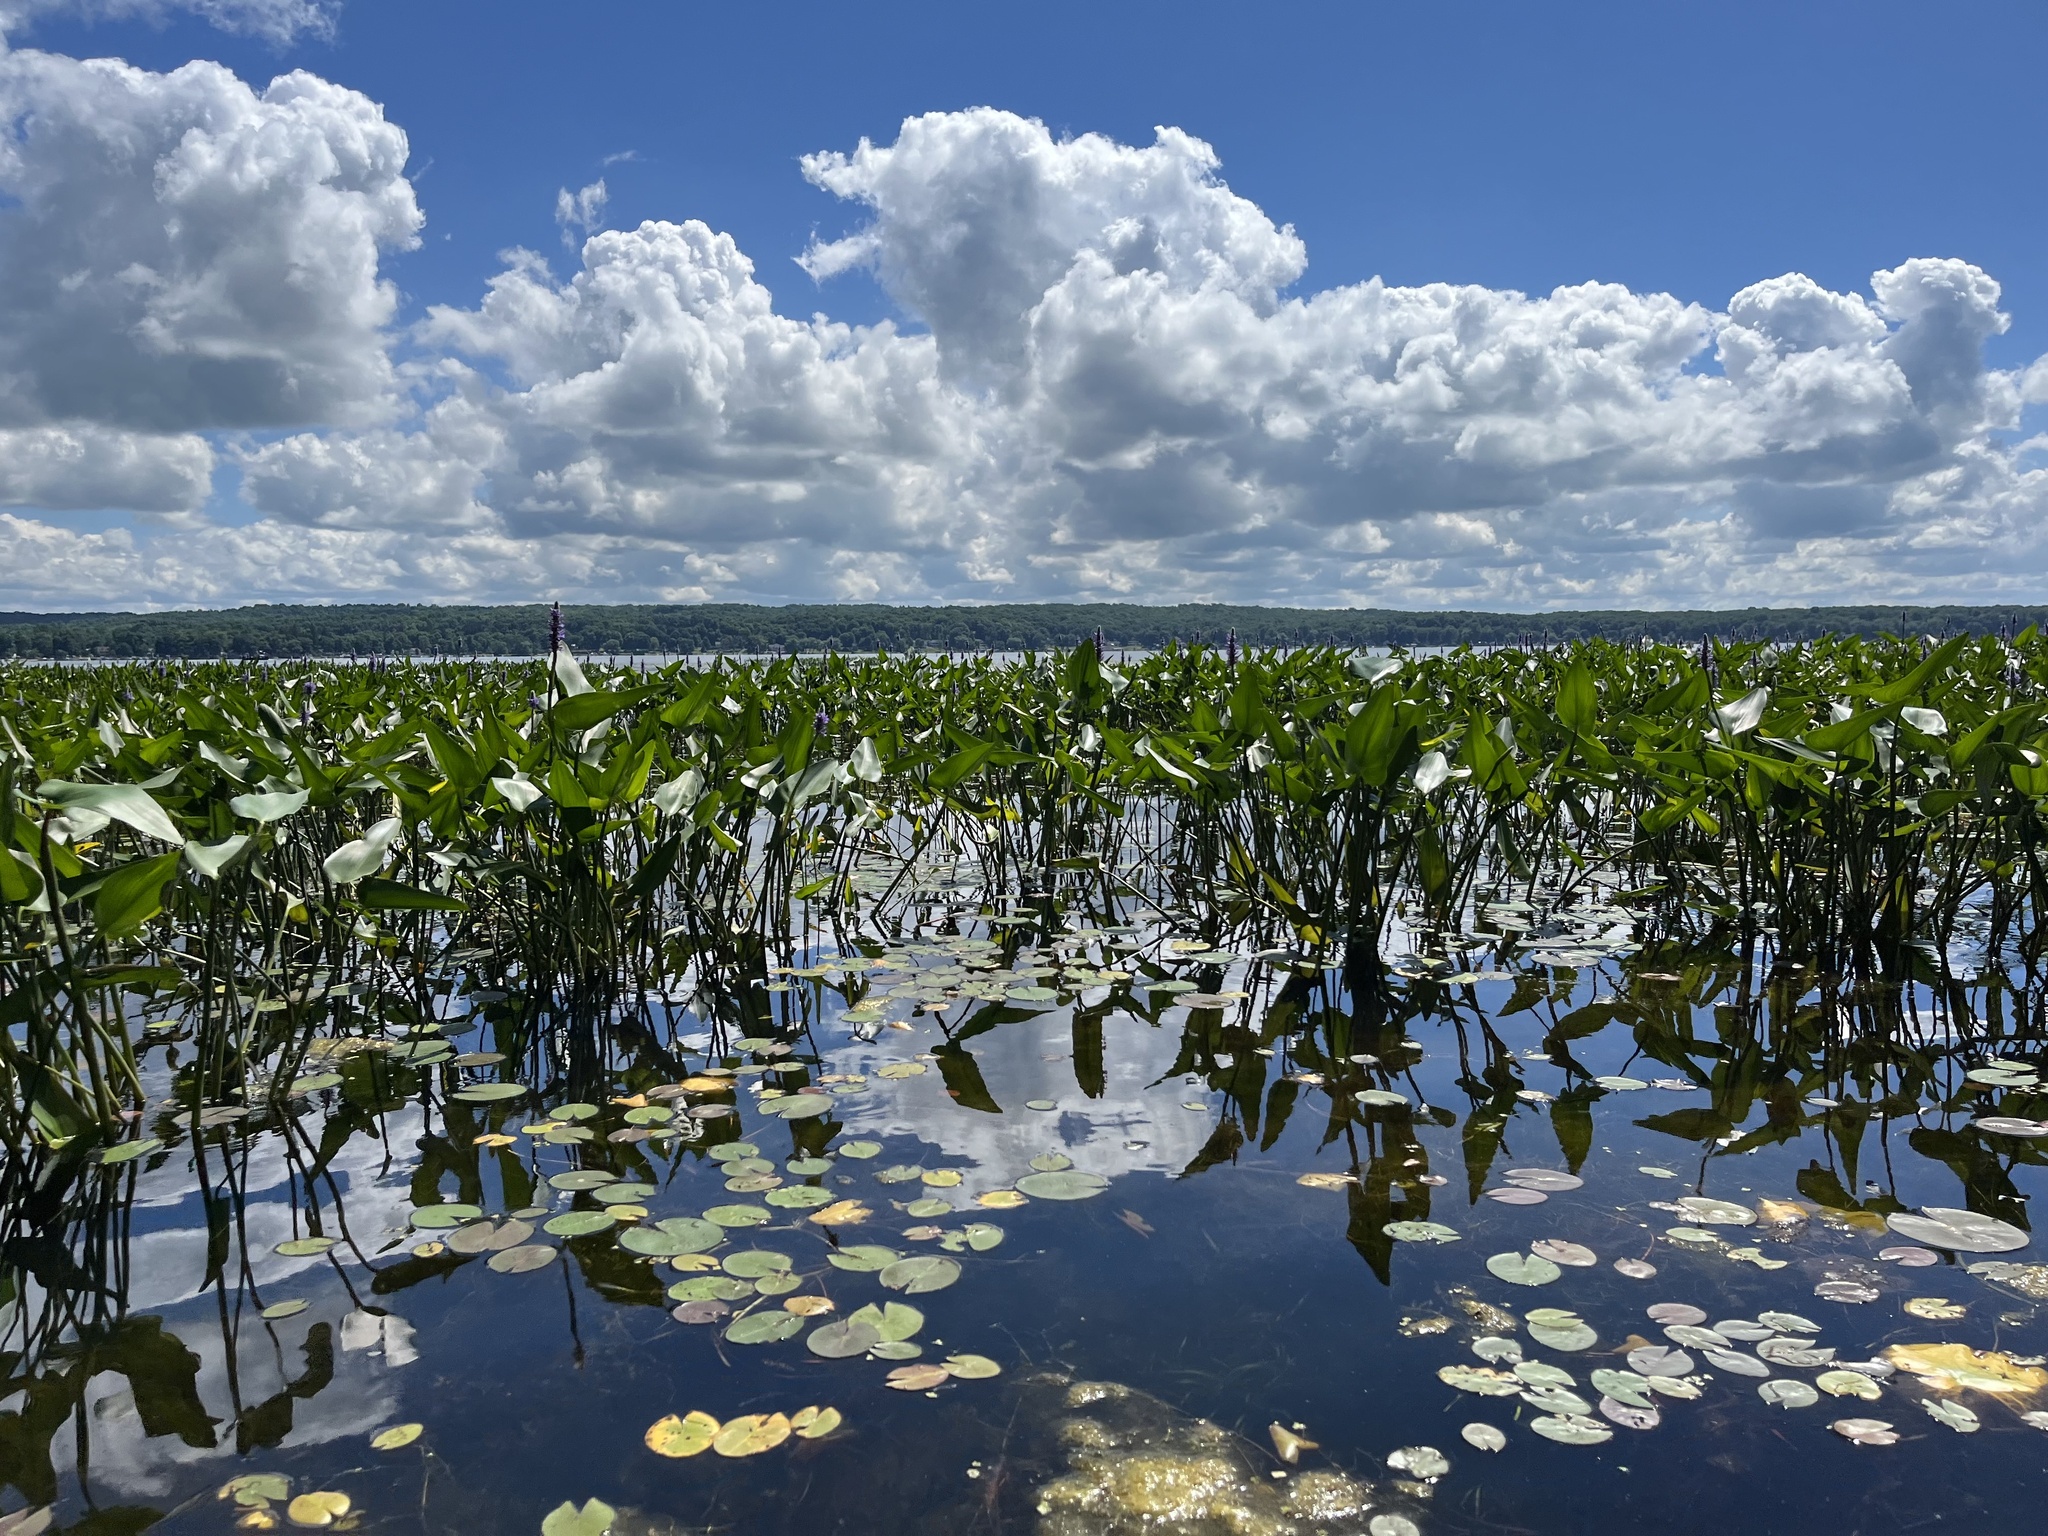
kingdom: Plantae
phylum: Tracheophyta
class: Liliopsida
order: Commelinales
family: Pontederiaceae
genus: Pontederia
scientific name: Pontederia cordata
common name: Pickerelweed
